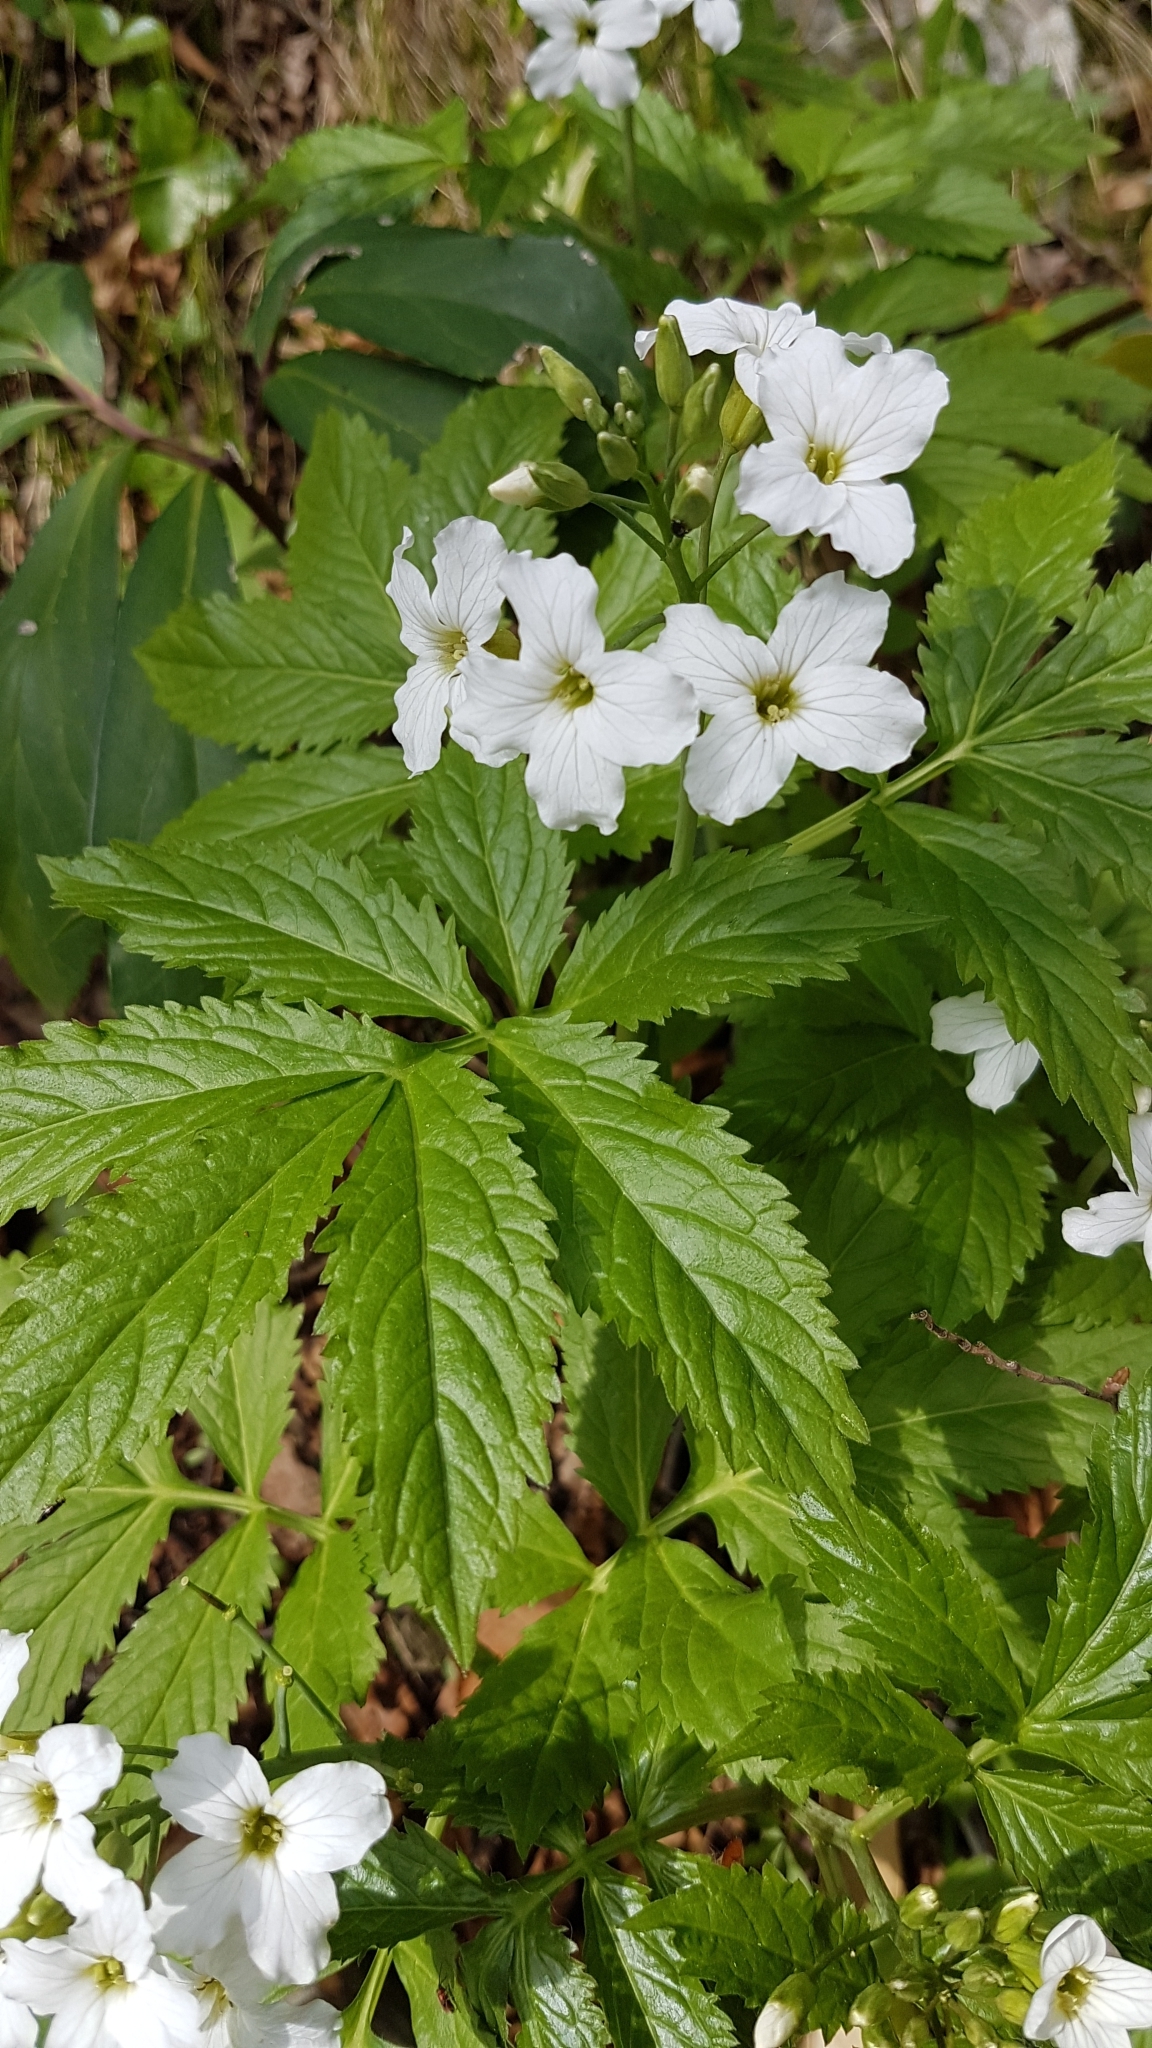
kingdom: Plantae
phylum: Tracheophyta
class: Magnoliopsida
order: Brassicales
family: Brassicaceae
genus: Cardamine
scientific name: Cardamine heptaphylla
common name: Pinnate coralroot
